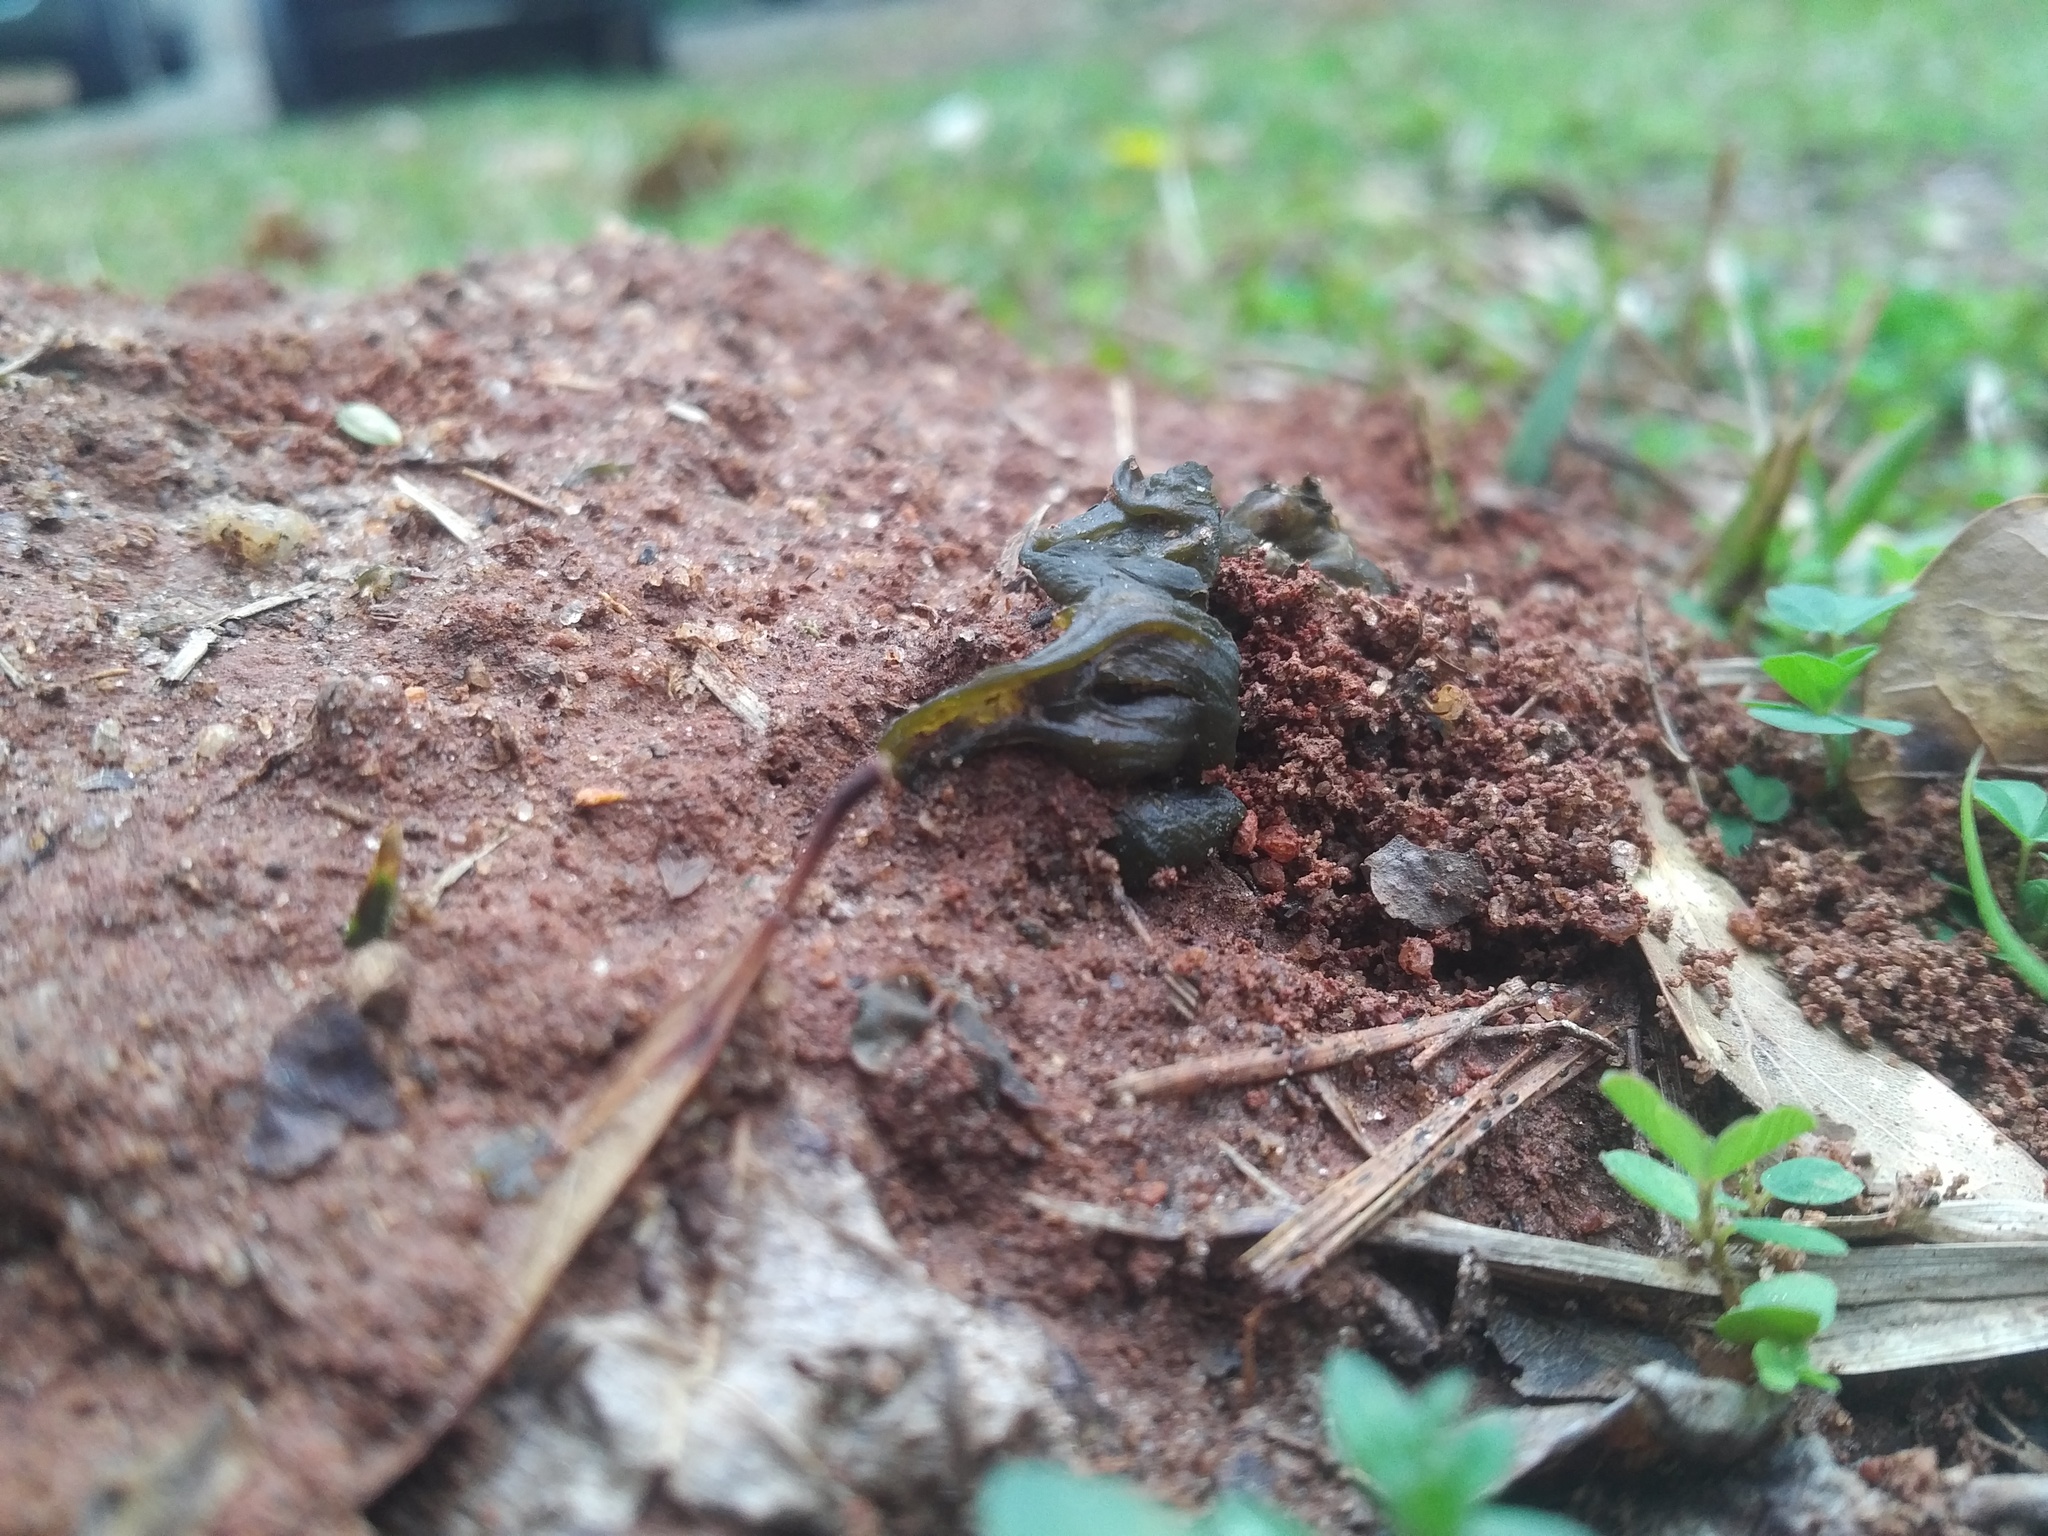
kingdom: Bacteria
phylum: Cyanobacteria
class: Cyanobacteriia
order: Cyanobacteriales
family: Nostocaceae
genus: Nostoc
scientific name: Nostoc commune
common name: Star jelly
